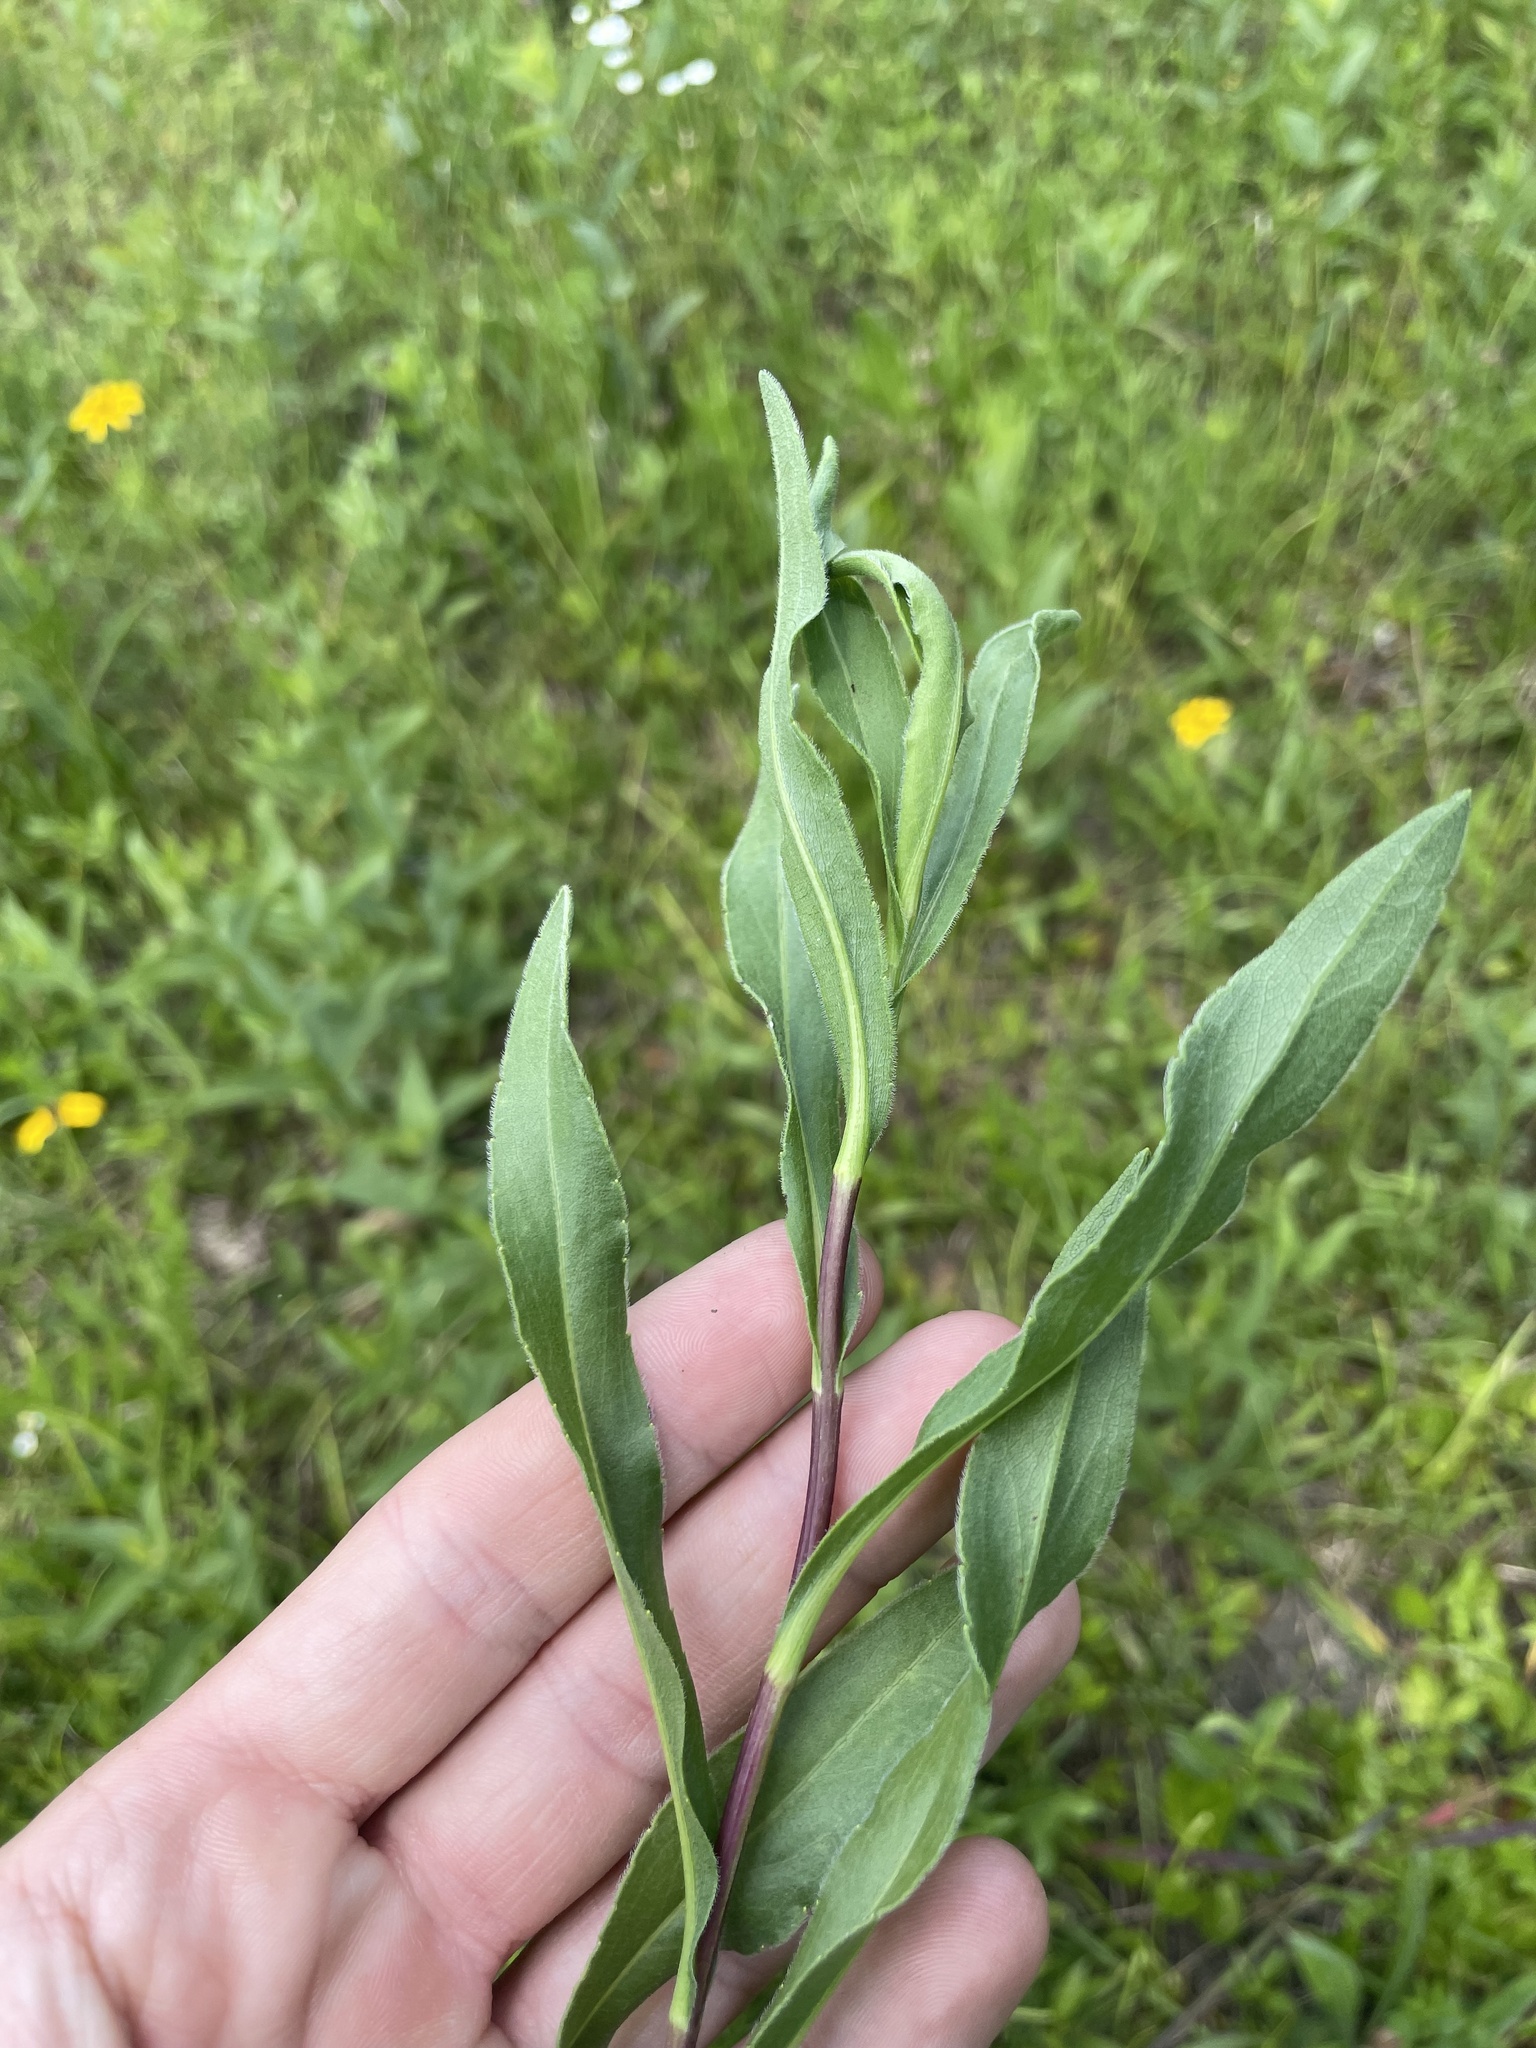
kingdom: Plantae
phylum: Tracheophyta
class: Magnoliopsida
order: Asterales
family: Asteraceae
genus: Solidago
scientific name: Solidago rigida
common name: Rigid goldenrod
